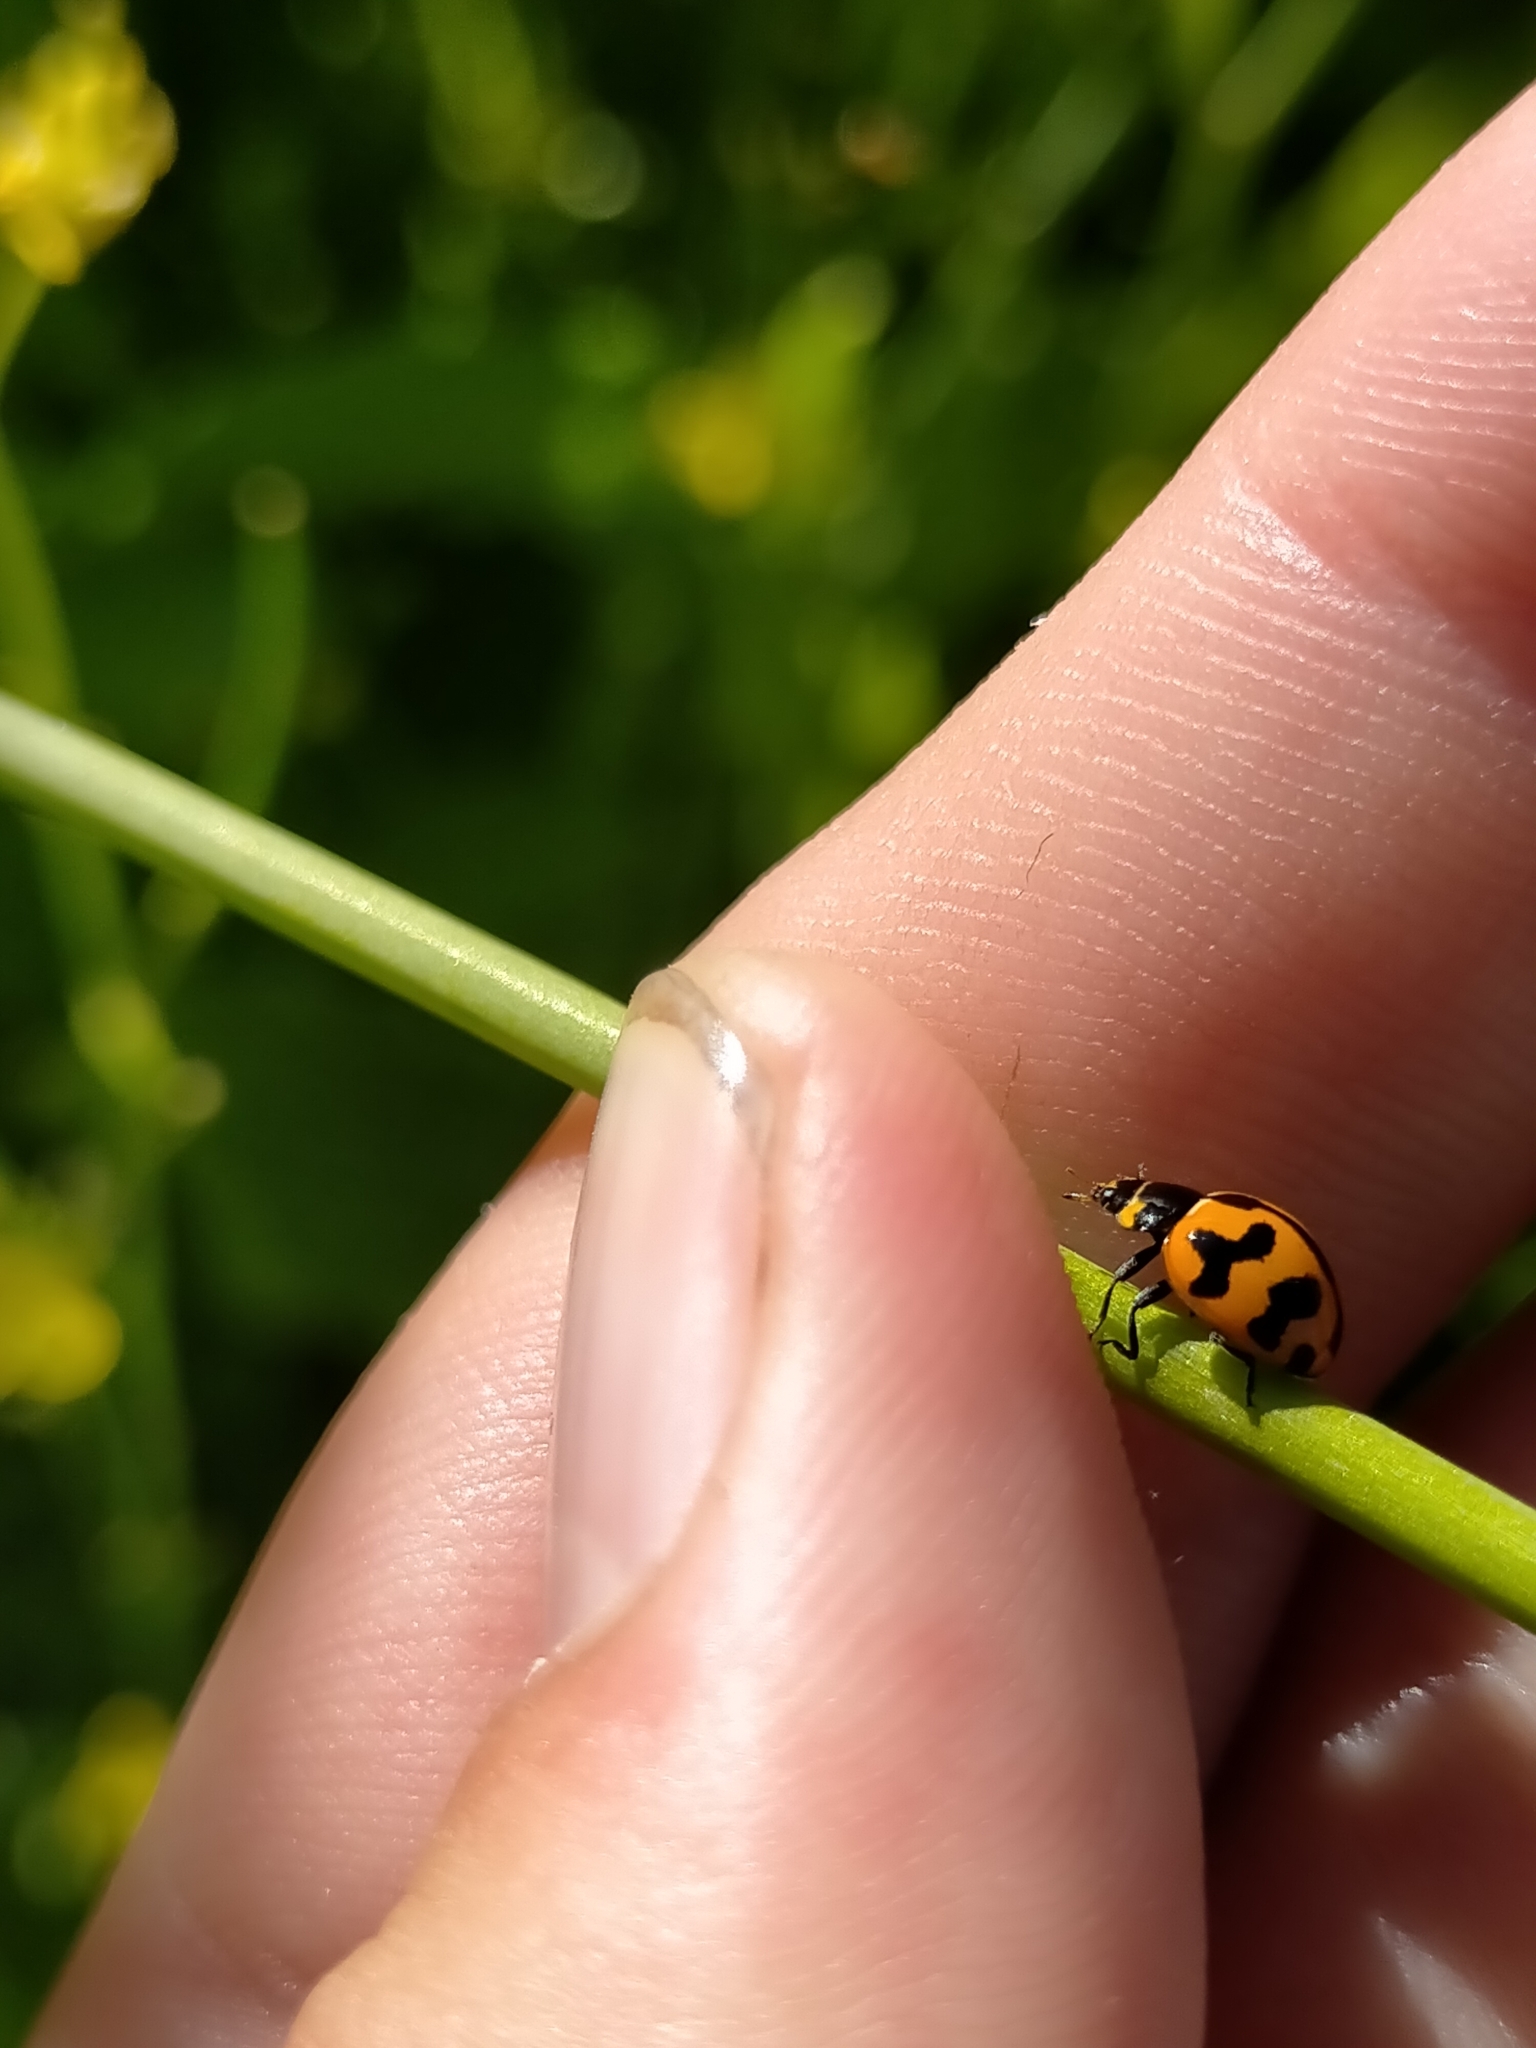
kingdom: Animalia
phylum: Arthropoda
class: Insecta
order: Coleoptera
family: Coccinellidae
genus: Coccinella
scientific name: Coccinella transversalis
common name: Transverse lady beetle
